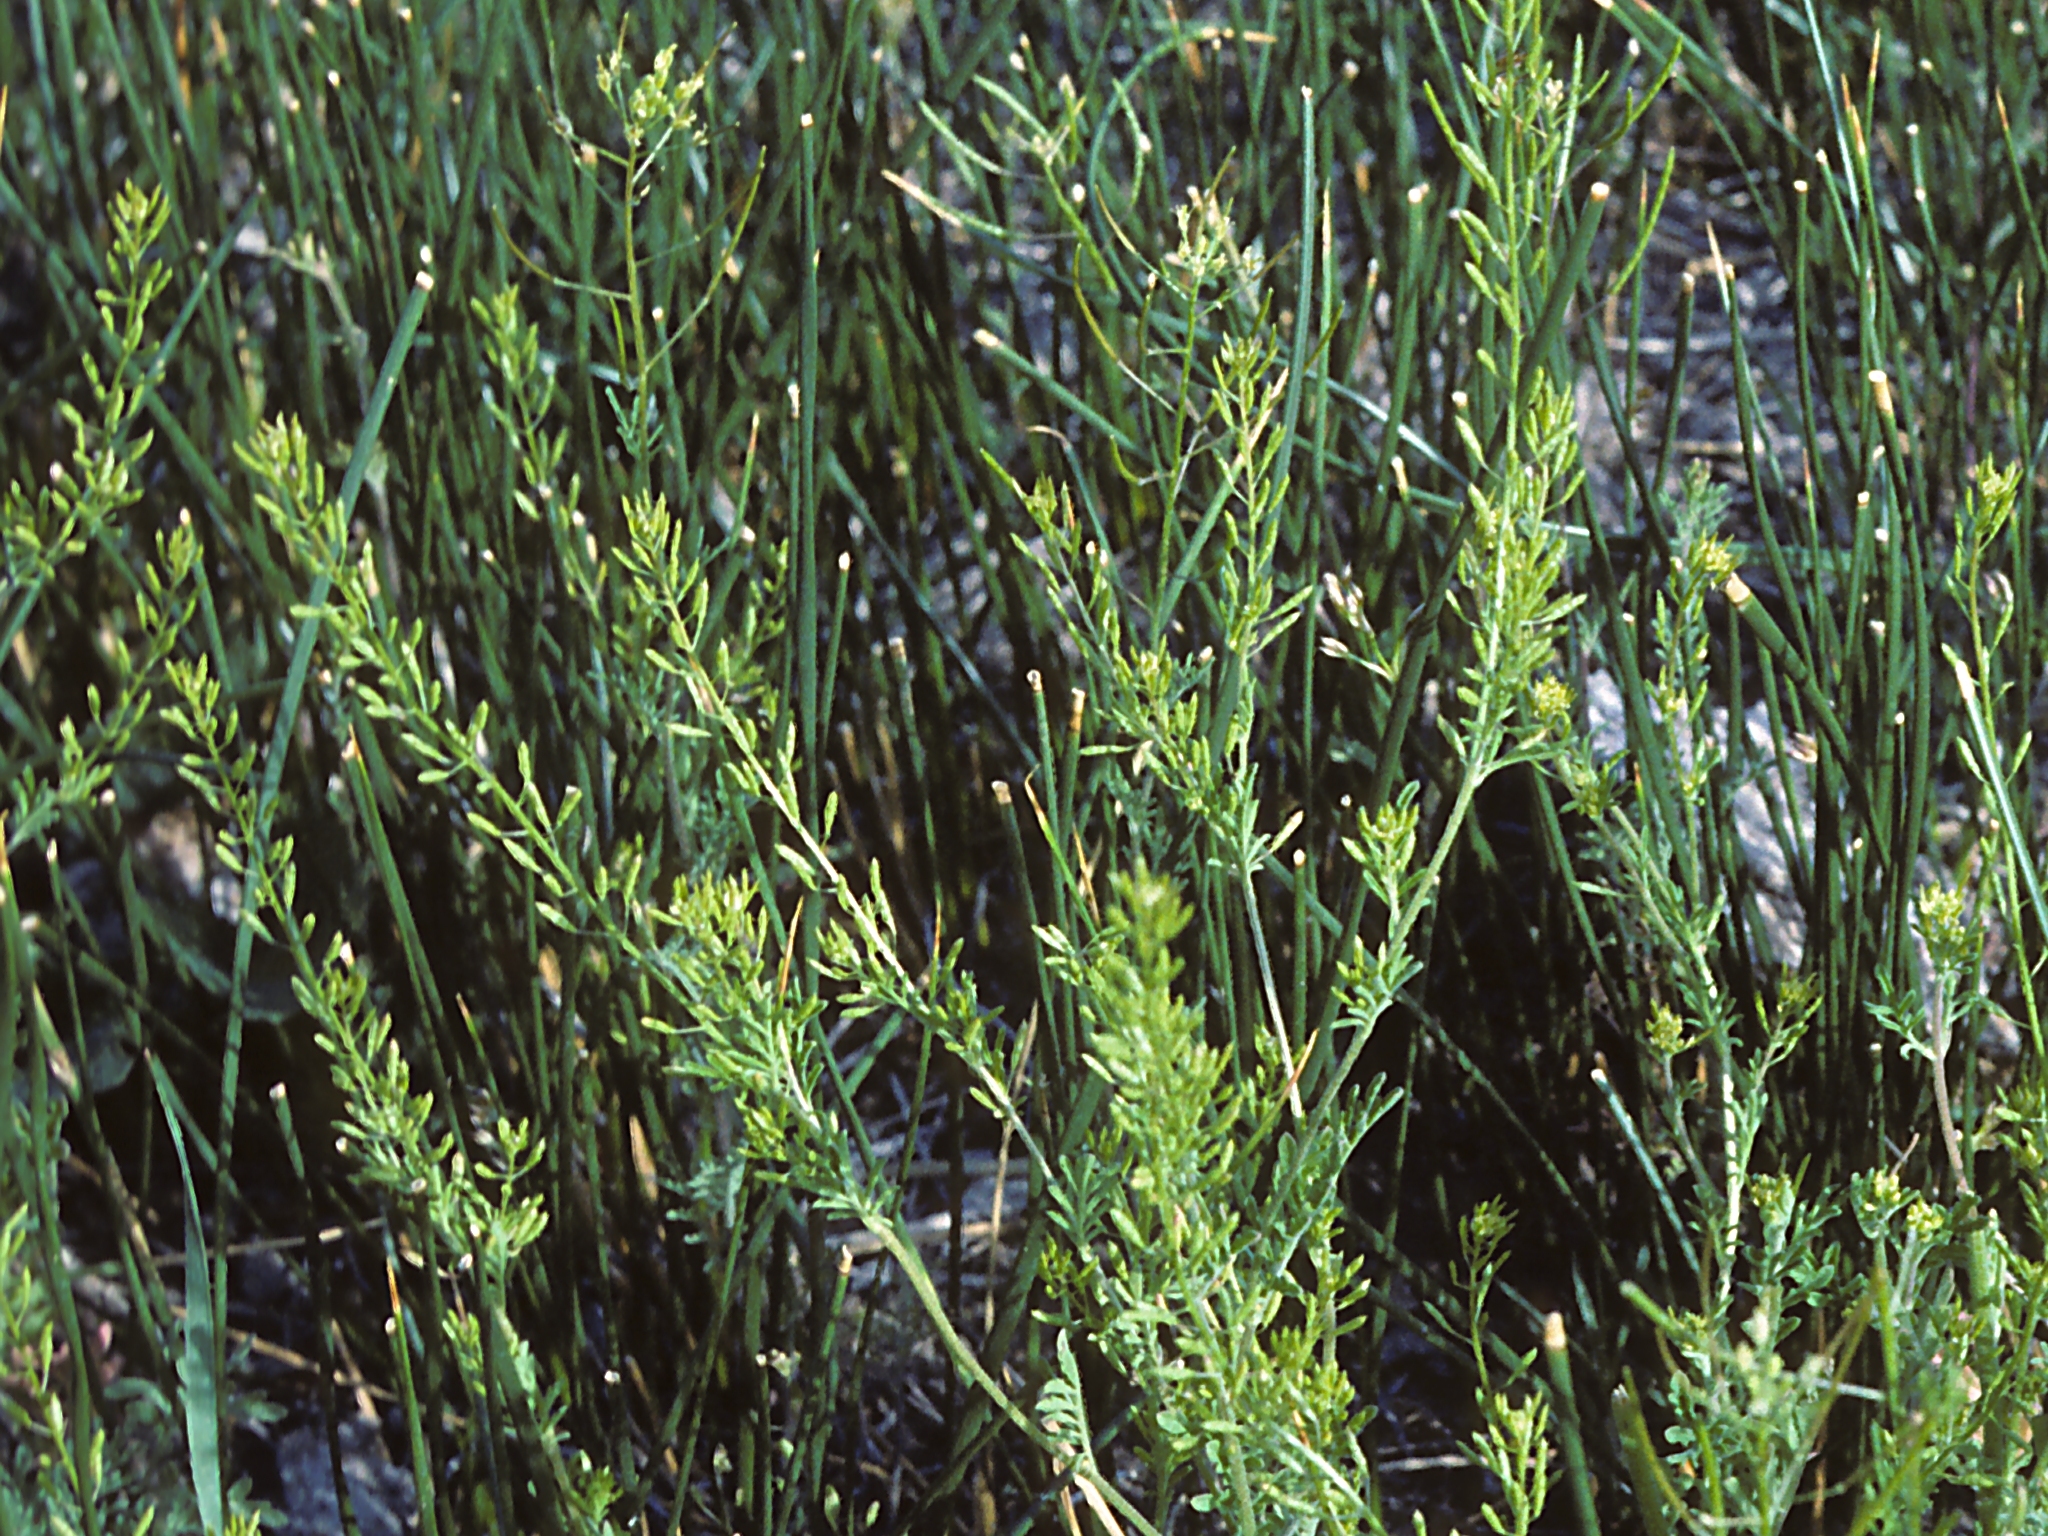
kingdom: Plantae
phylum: Tracheophyta
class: Magnoliopsida
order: Brassicales
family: Brassicaceae
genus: Descurainia
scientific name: Descurainia sophia
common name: Flixweed
